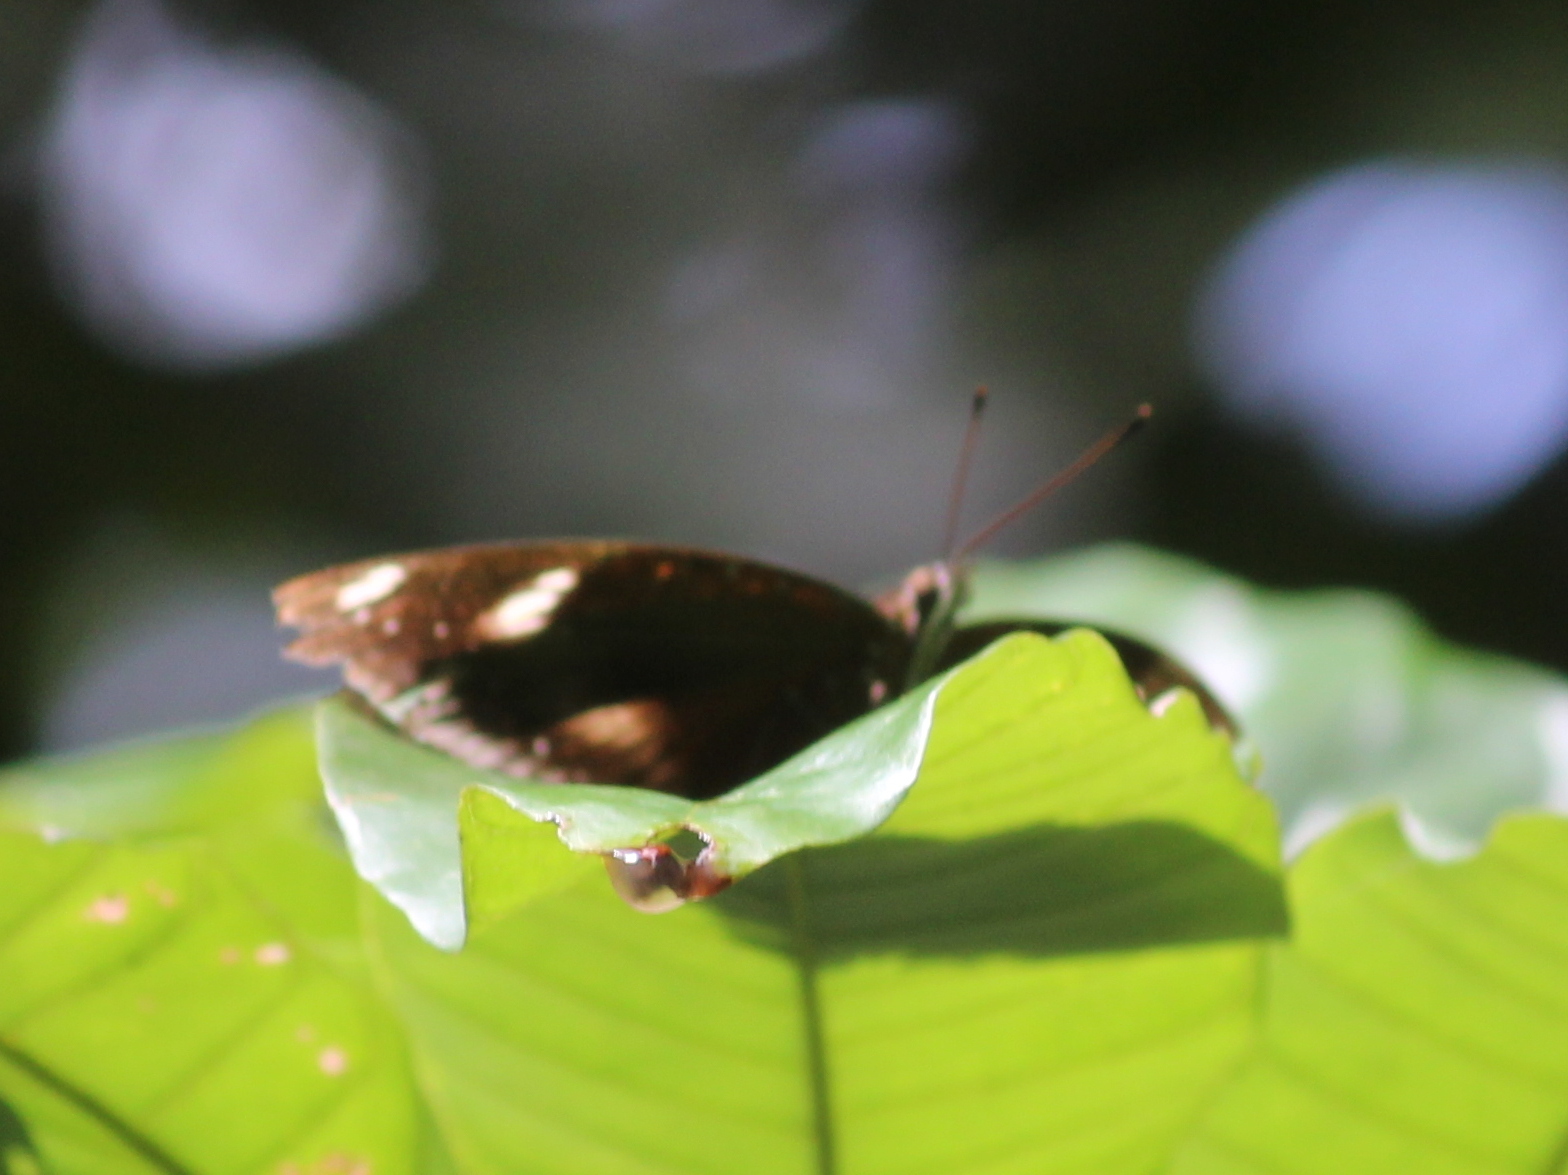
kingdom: Animalia
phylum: Arthropoda
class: Insecta
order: Lepidoptera
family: Nymphalidae
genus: Hypolimnas
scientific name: Hypolimnas bolina
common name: Great eggfly
